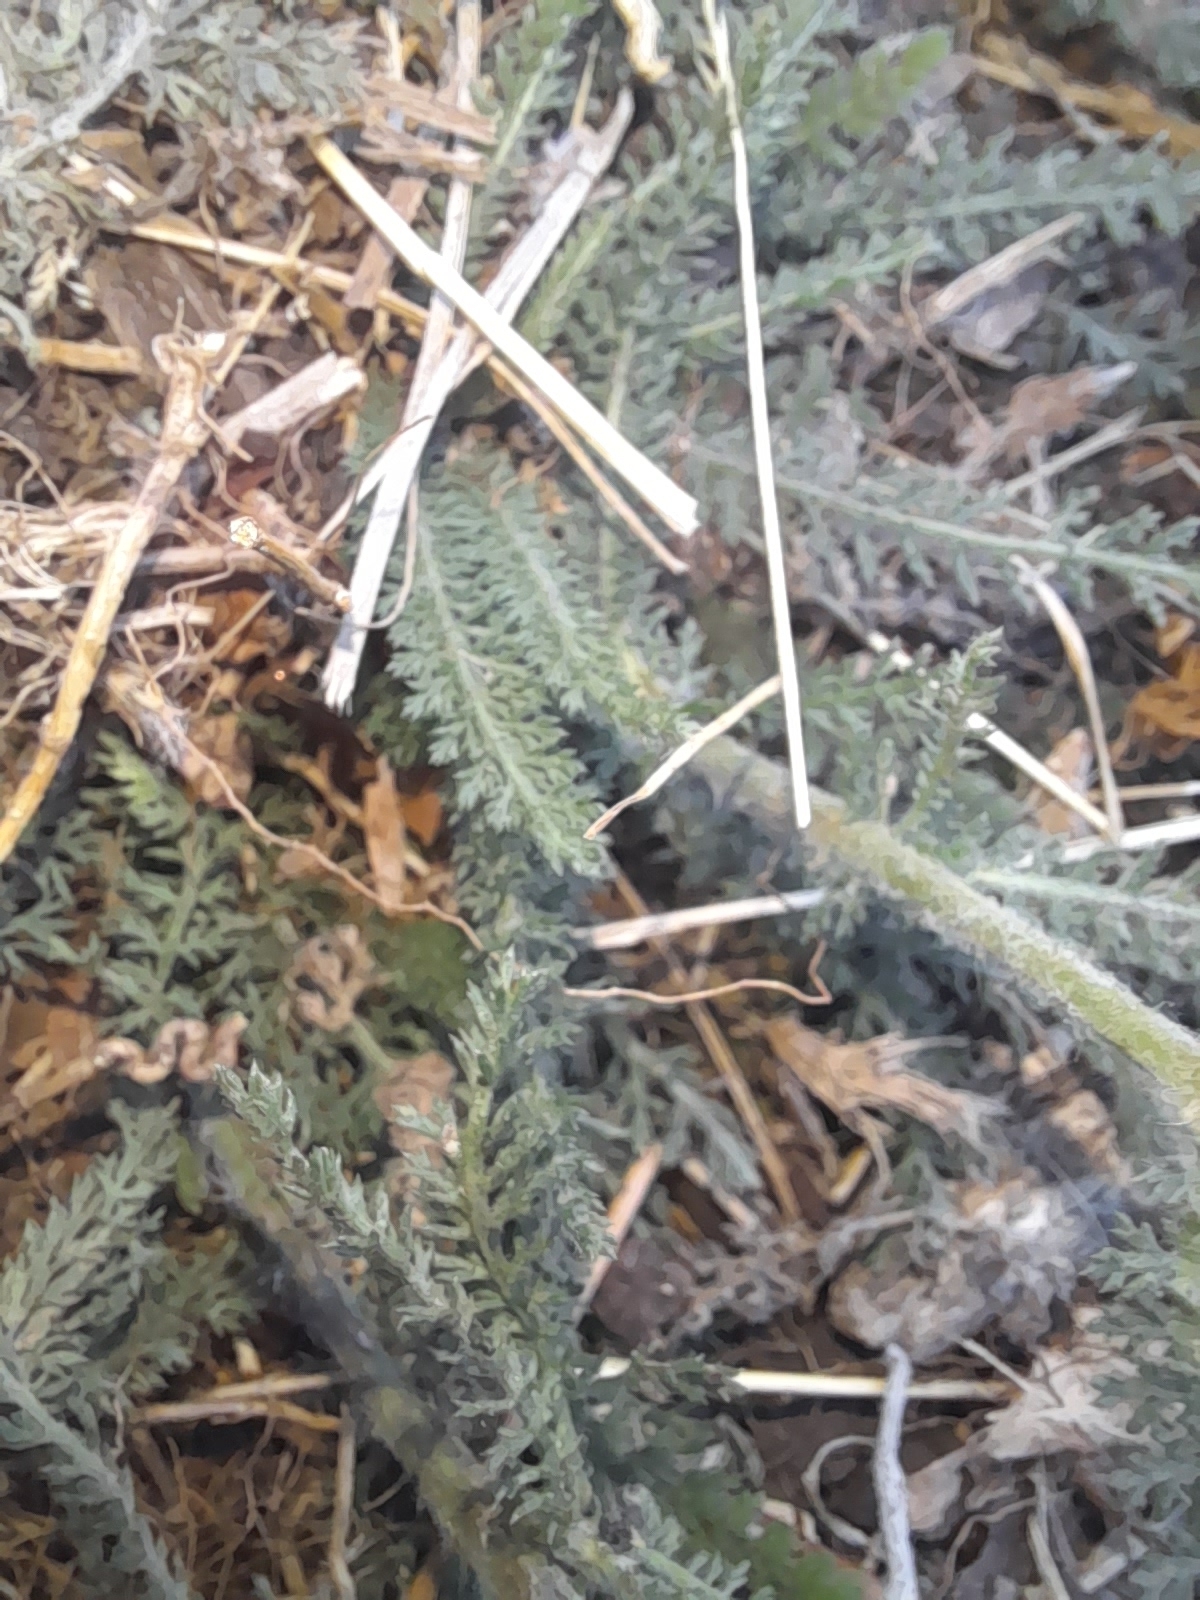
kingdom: Plantae
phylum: Tracheophyta
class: Magnoliopsida
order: Asterales
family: Asteraceae
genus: Achillea
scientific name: Achillea millefolium
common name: Yarrow
